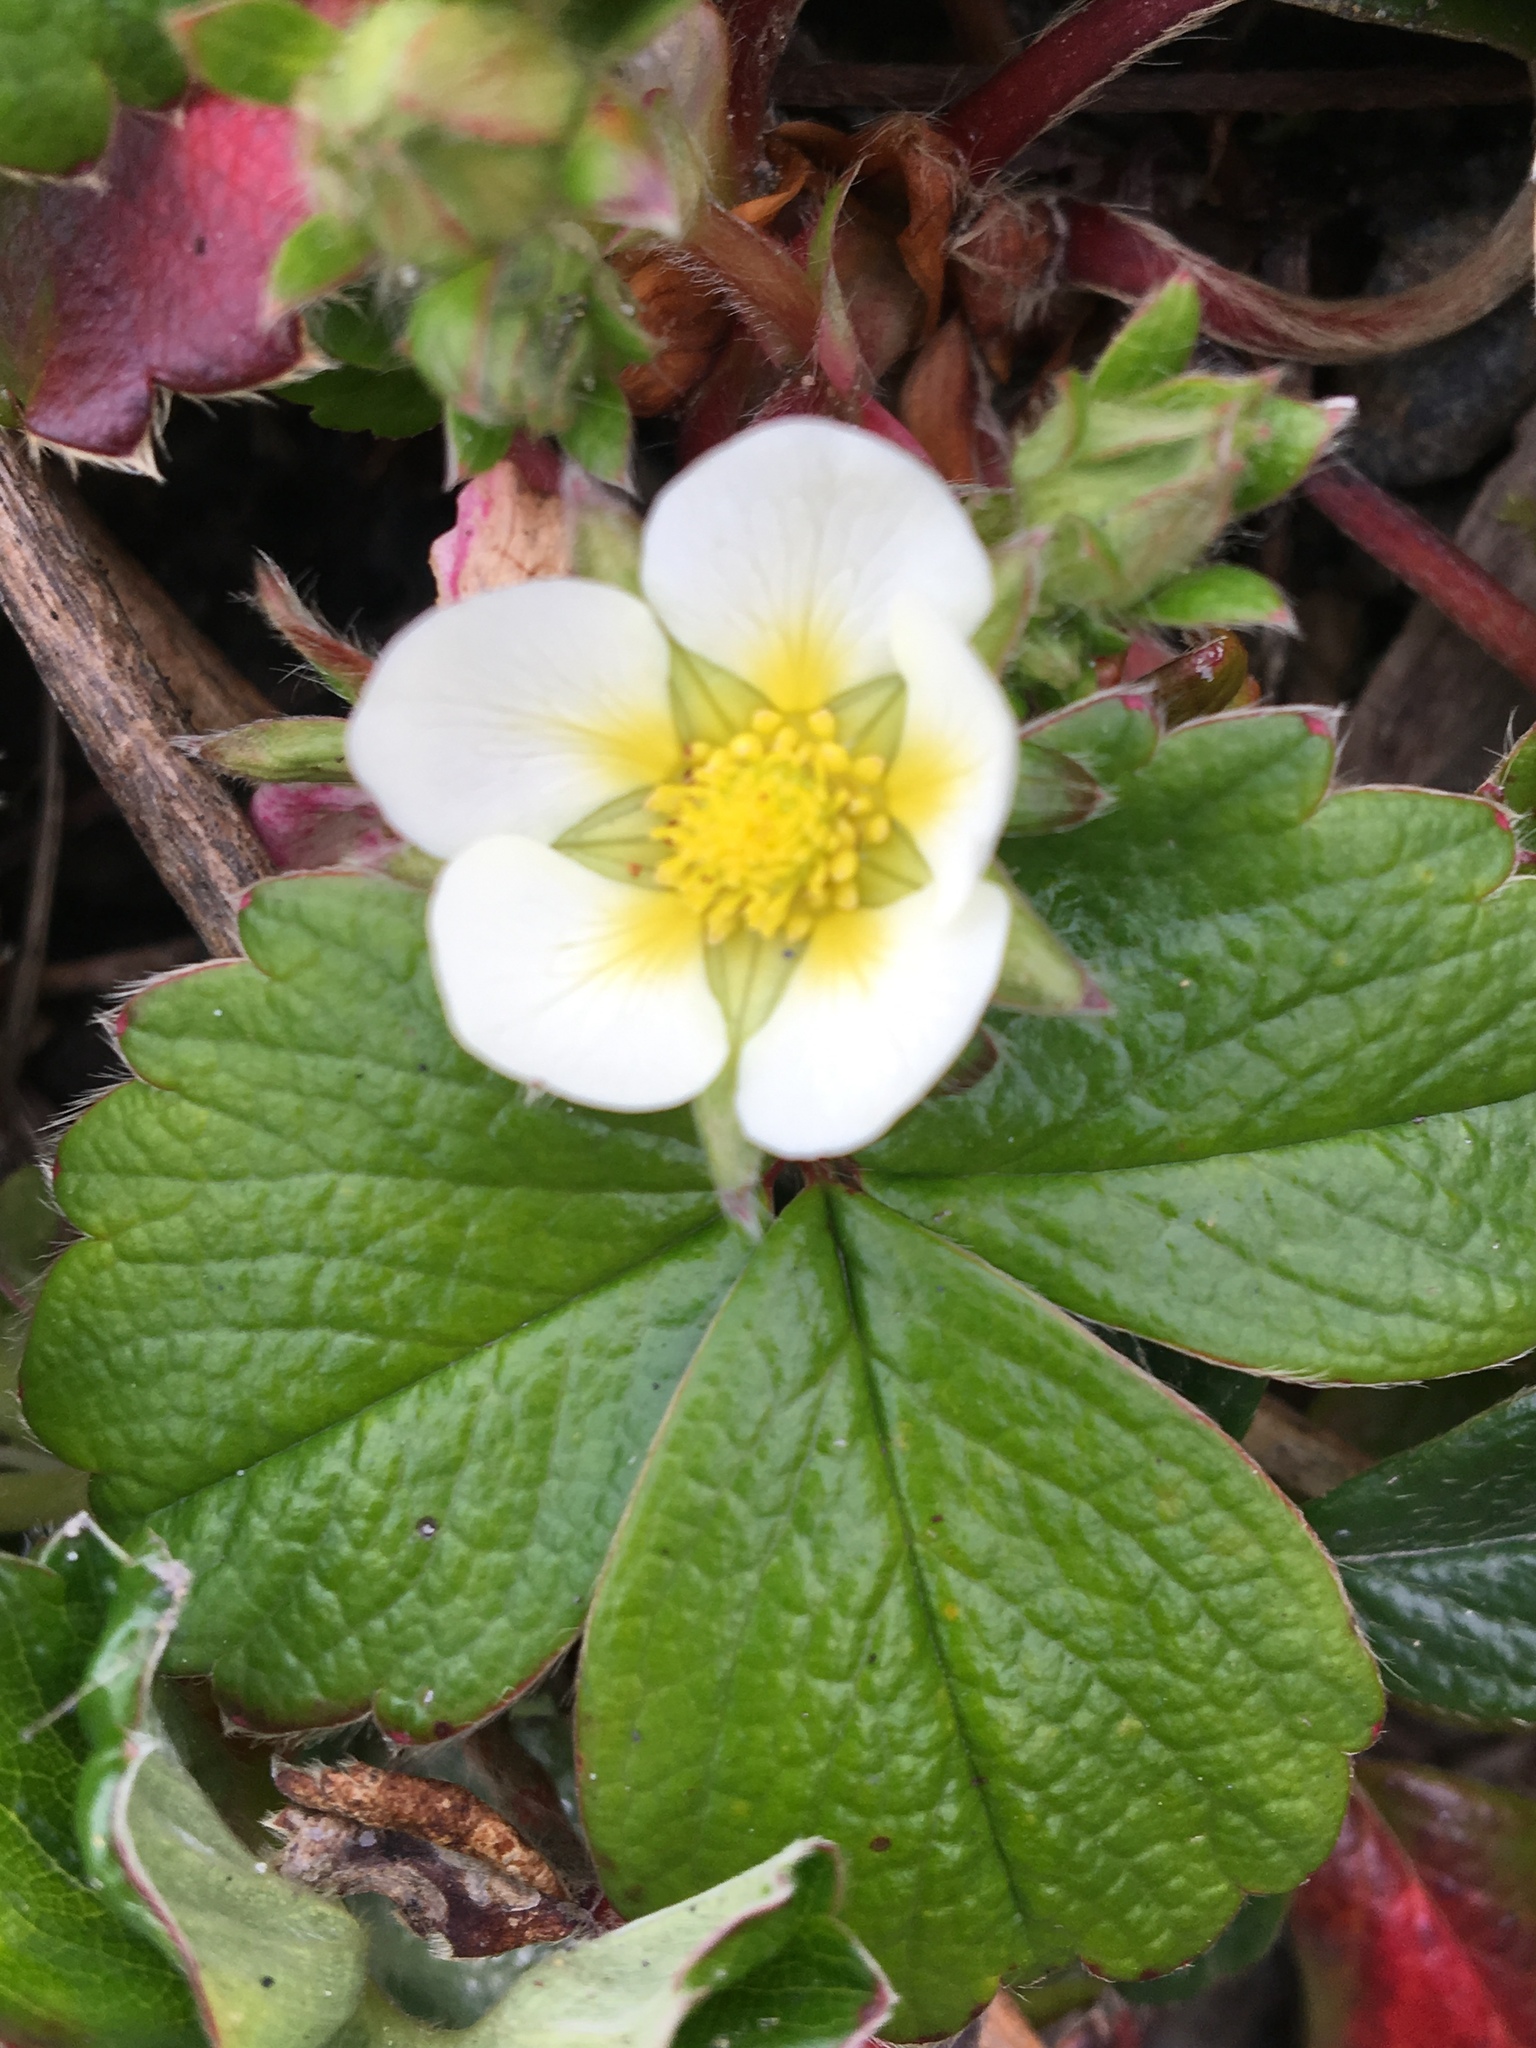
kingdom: Plantae
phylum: Tracheophyta
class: Magnoliopsida
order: Rosales
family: Rosaceae
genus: Fragaria
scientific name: Fragaria chiloensis
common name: Beach strawberry
